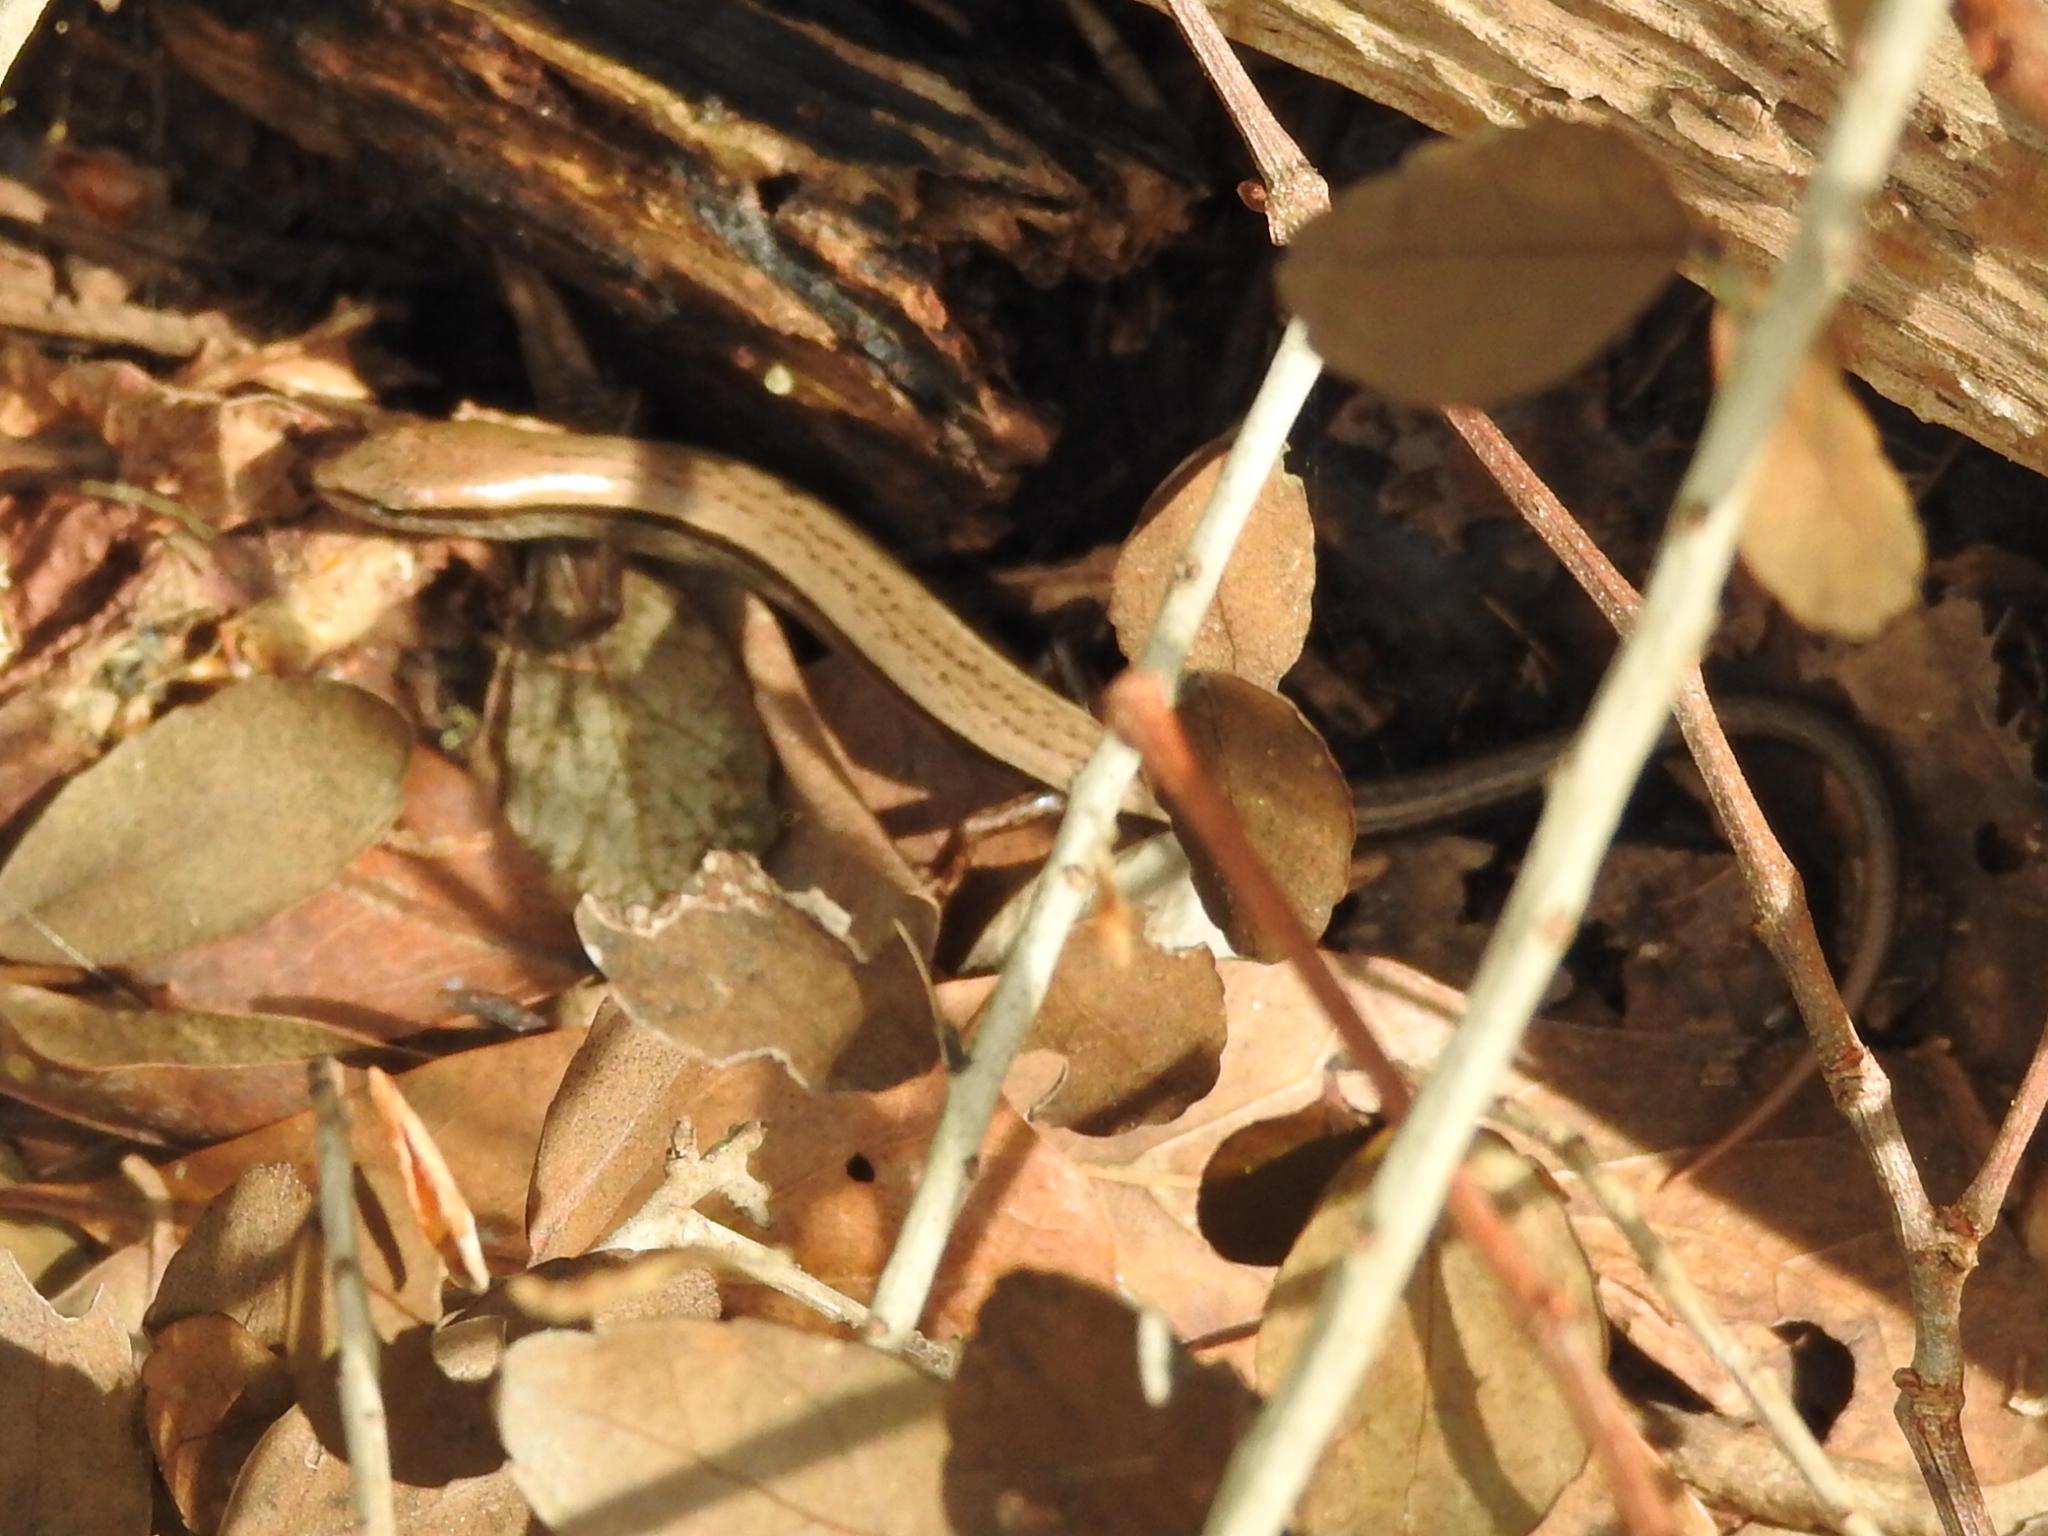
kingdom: Animalia
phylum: Chordata
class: Squamata
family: Scincidae
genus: Scincella
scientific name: Scincella lateralis
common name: Ground skink
